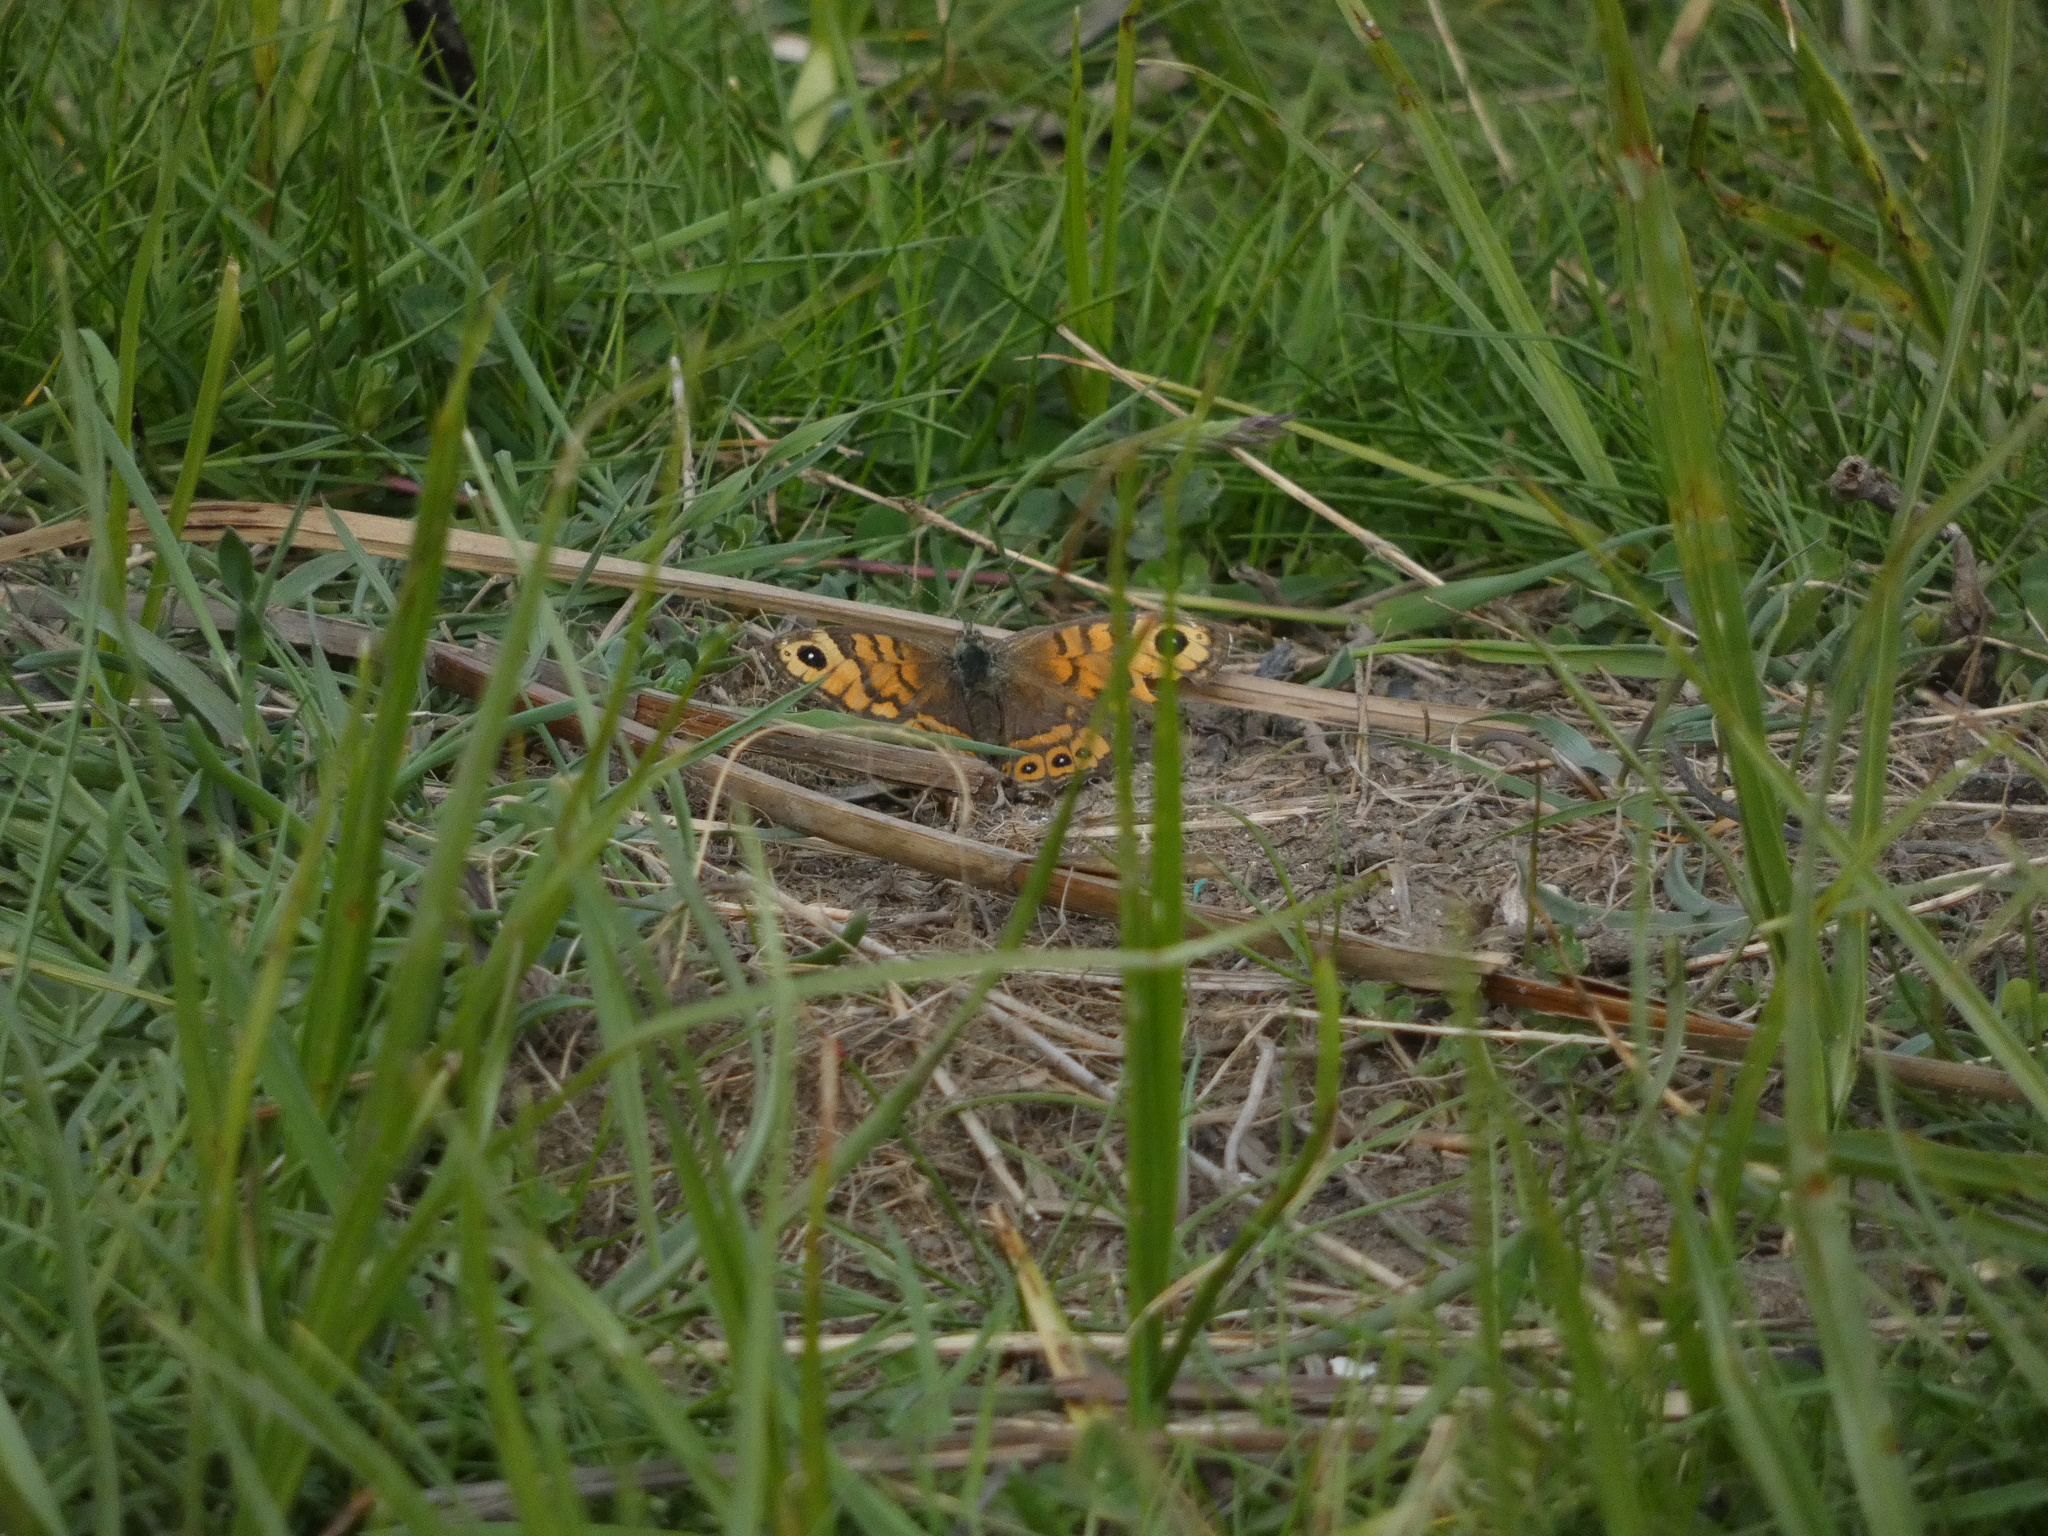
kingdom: Animalia
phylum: Arthropoda
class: Insecta
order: Lepidoptera
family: Nymphalidae
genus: Pararge
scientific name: Pararge Lasiommata megera
